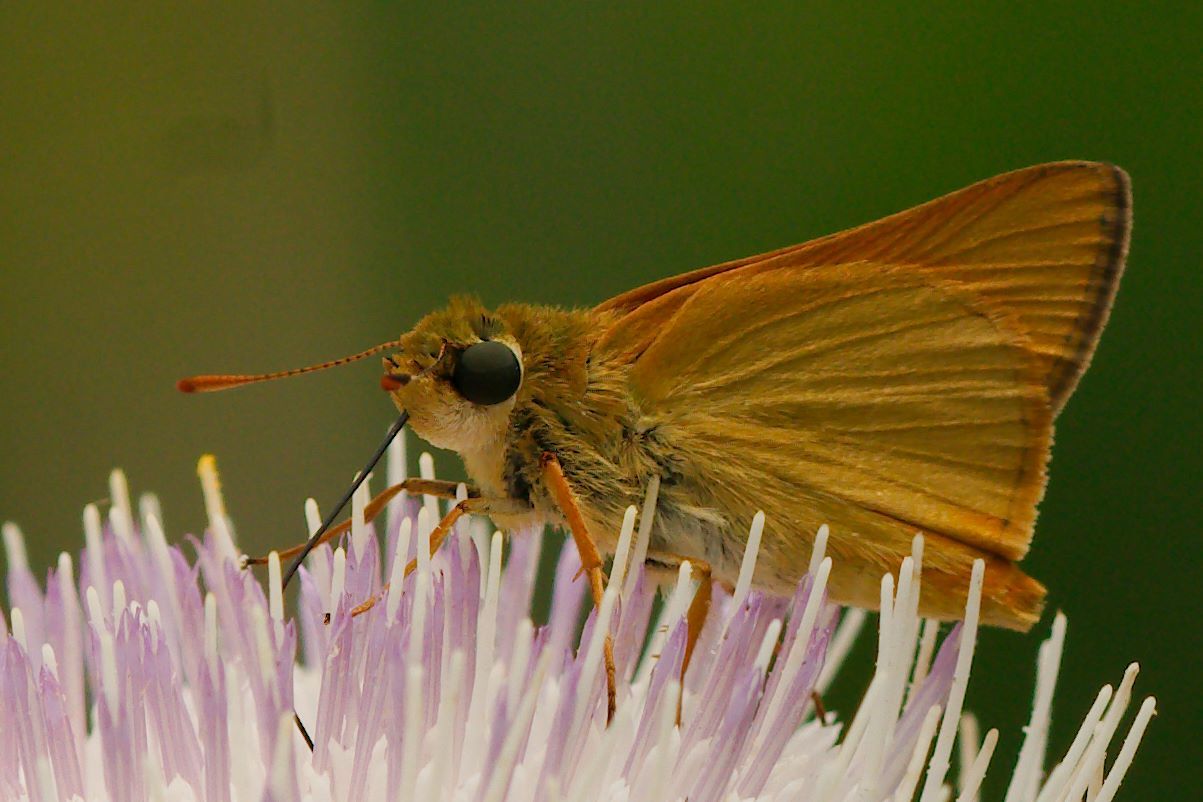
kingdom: Animalia
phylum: Arthropoda
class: Insecta
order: Lepidoptera
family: Hesperiidae
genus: Atrytone
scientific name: Atrytone delaware
